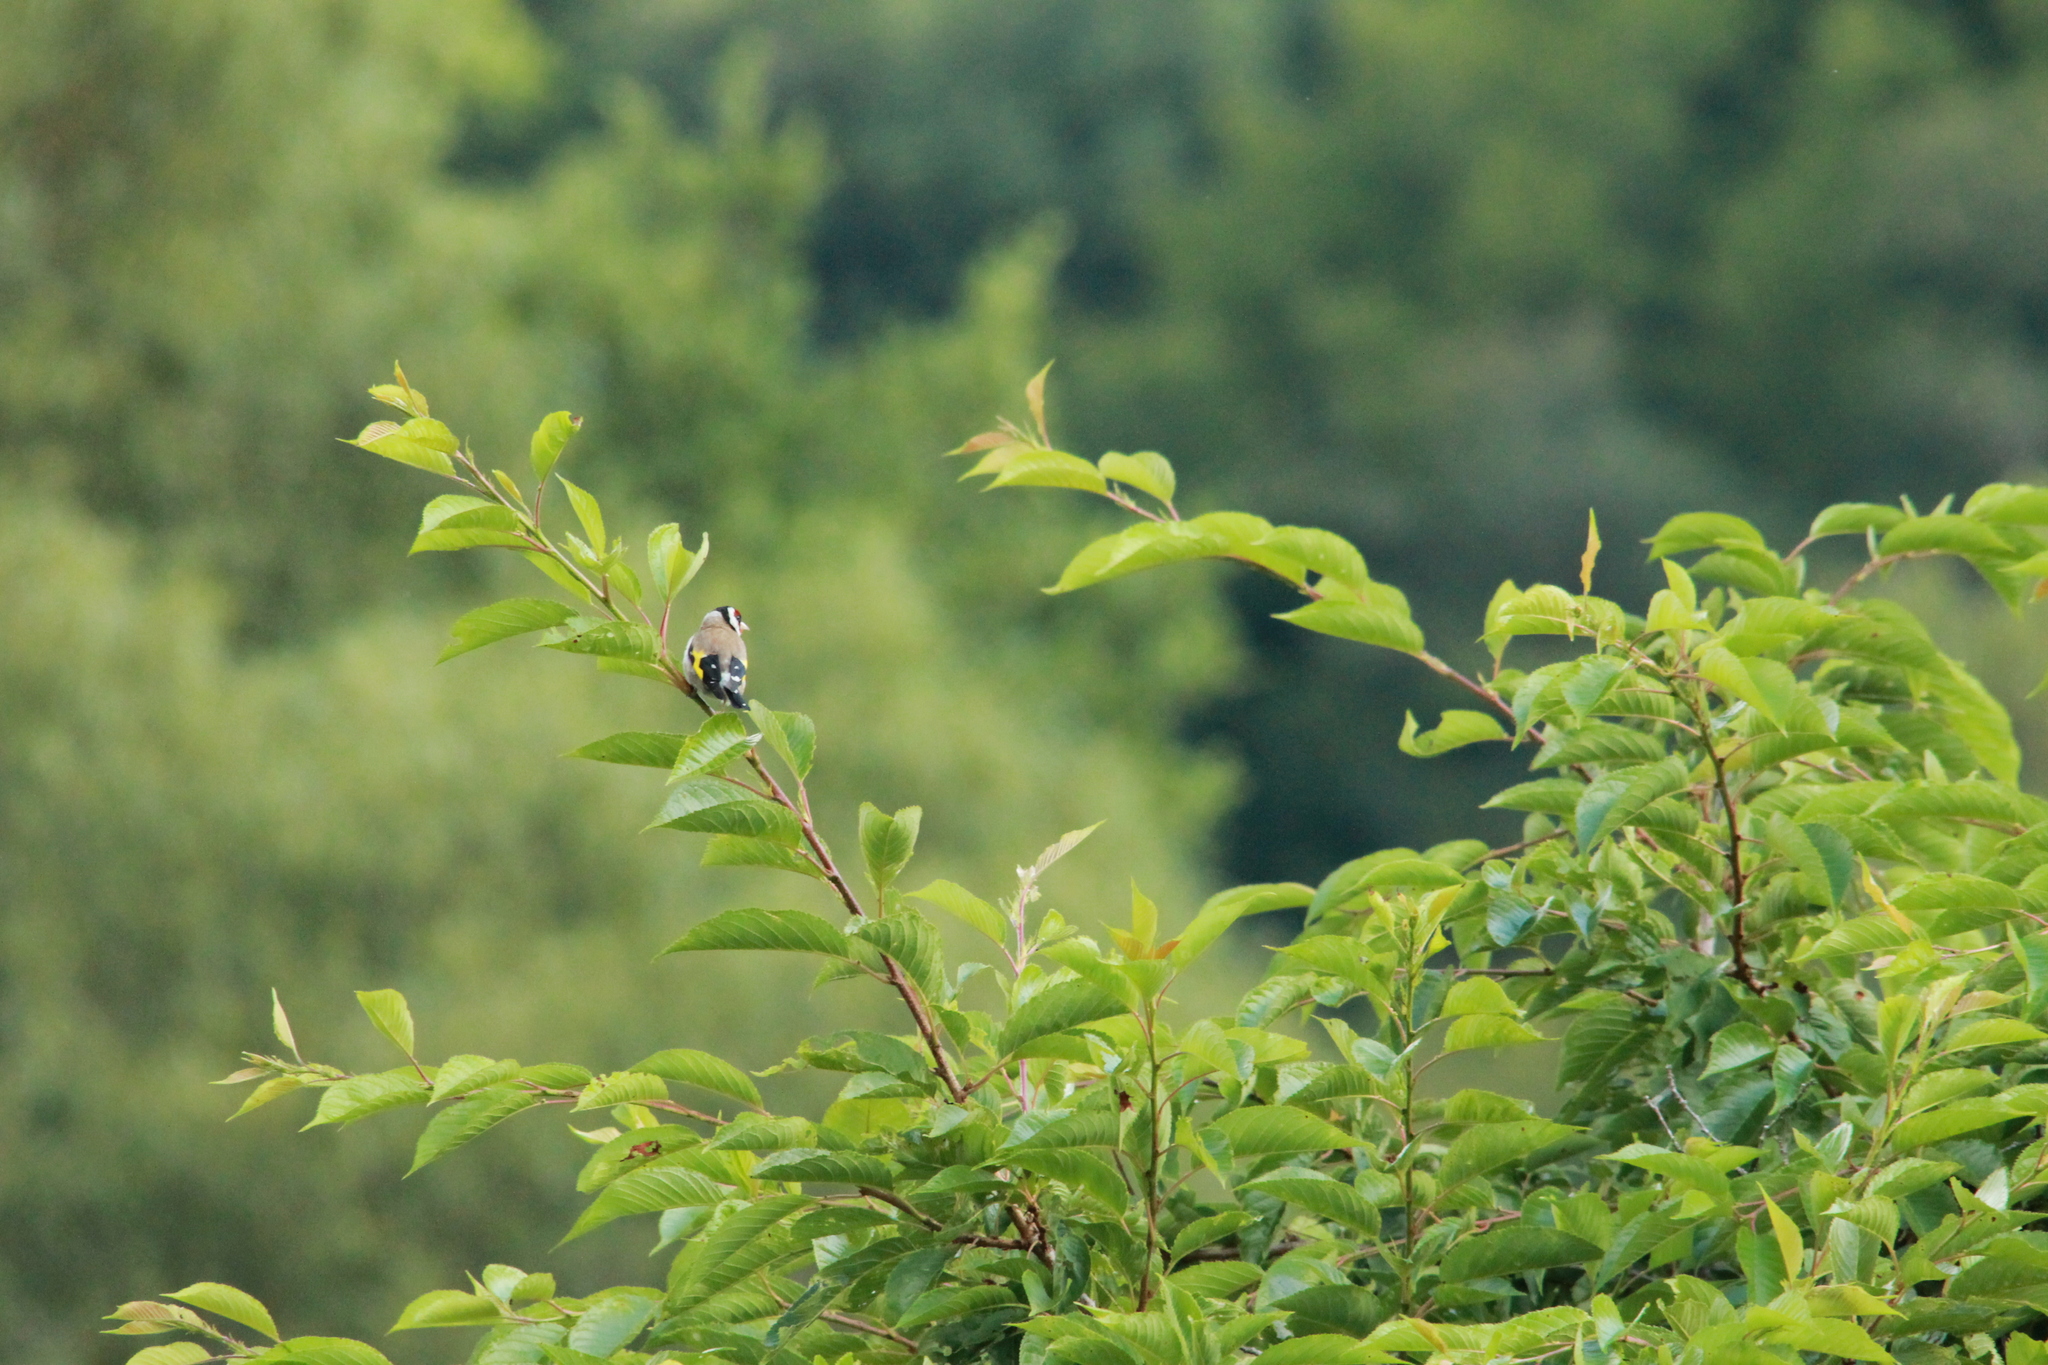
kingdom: Animalia
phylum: Chordata
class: Aves
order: Passeriformes
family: Fringillidae
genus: Carduelis
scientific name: Carduelis carduelis
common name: European goldfinch
